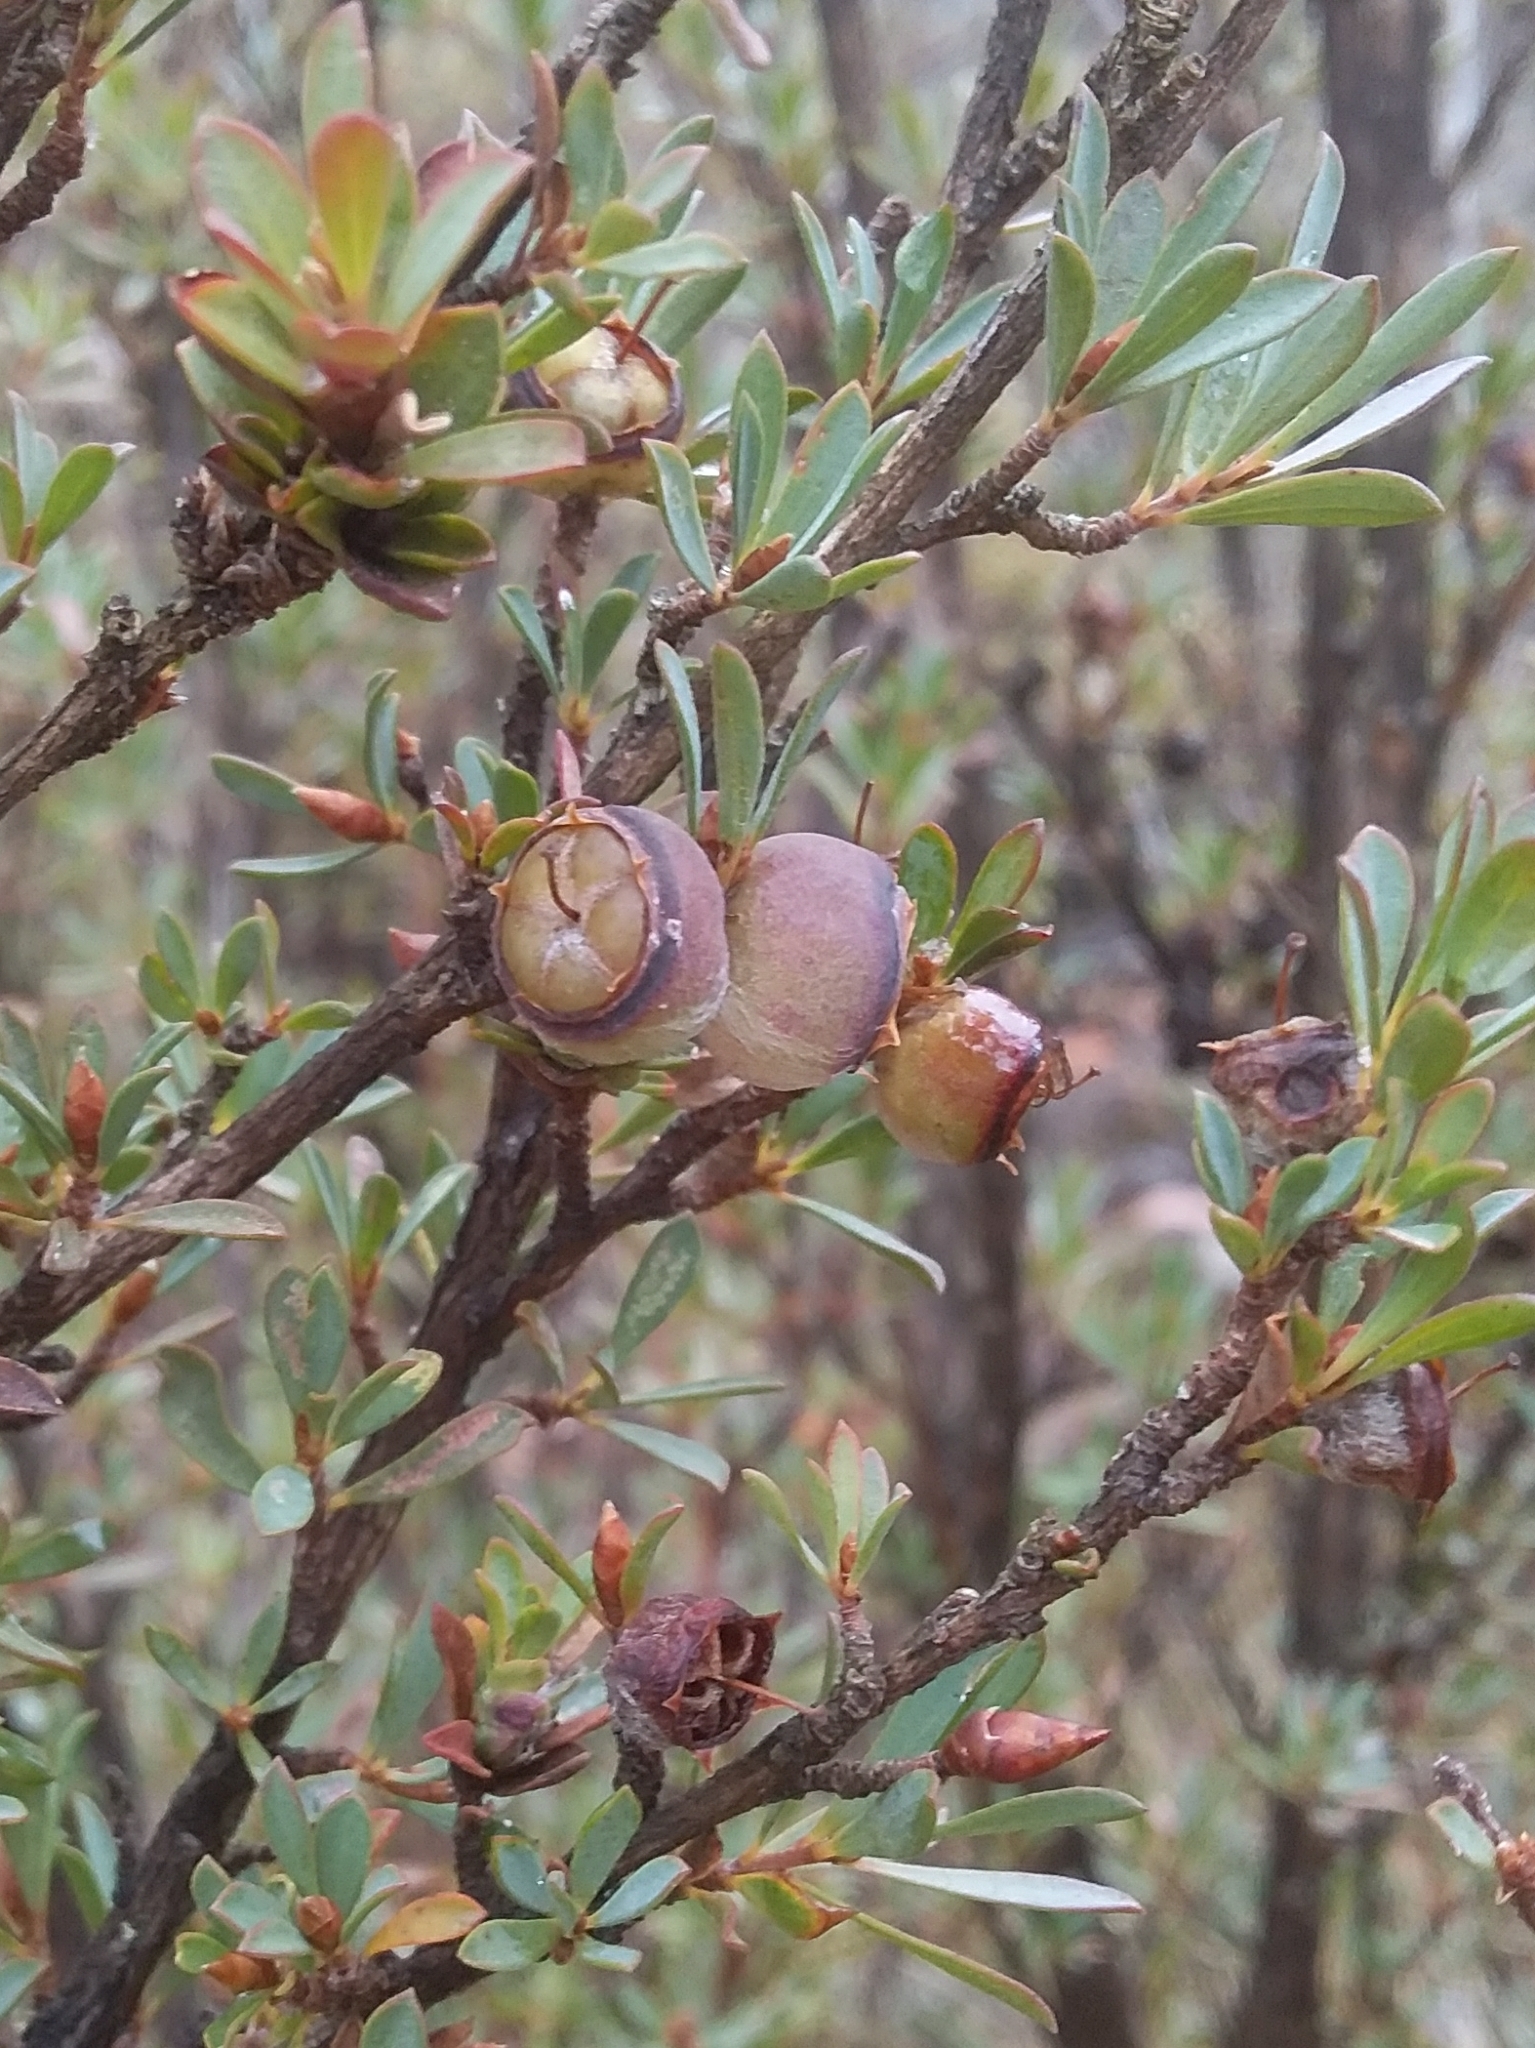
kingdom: Plantae
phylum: Tracheophyta
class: Magnoliopsida
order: Myrtales
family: Myrtaceae
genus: Leptospermum
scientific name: Leptospermum myrsinoides
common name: Heath teatree
